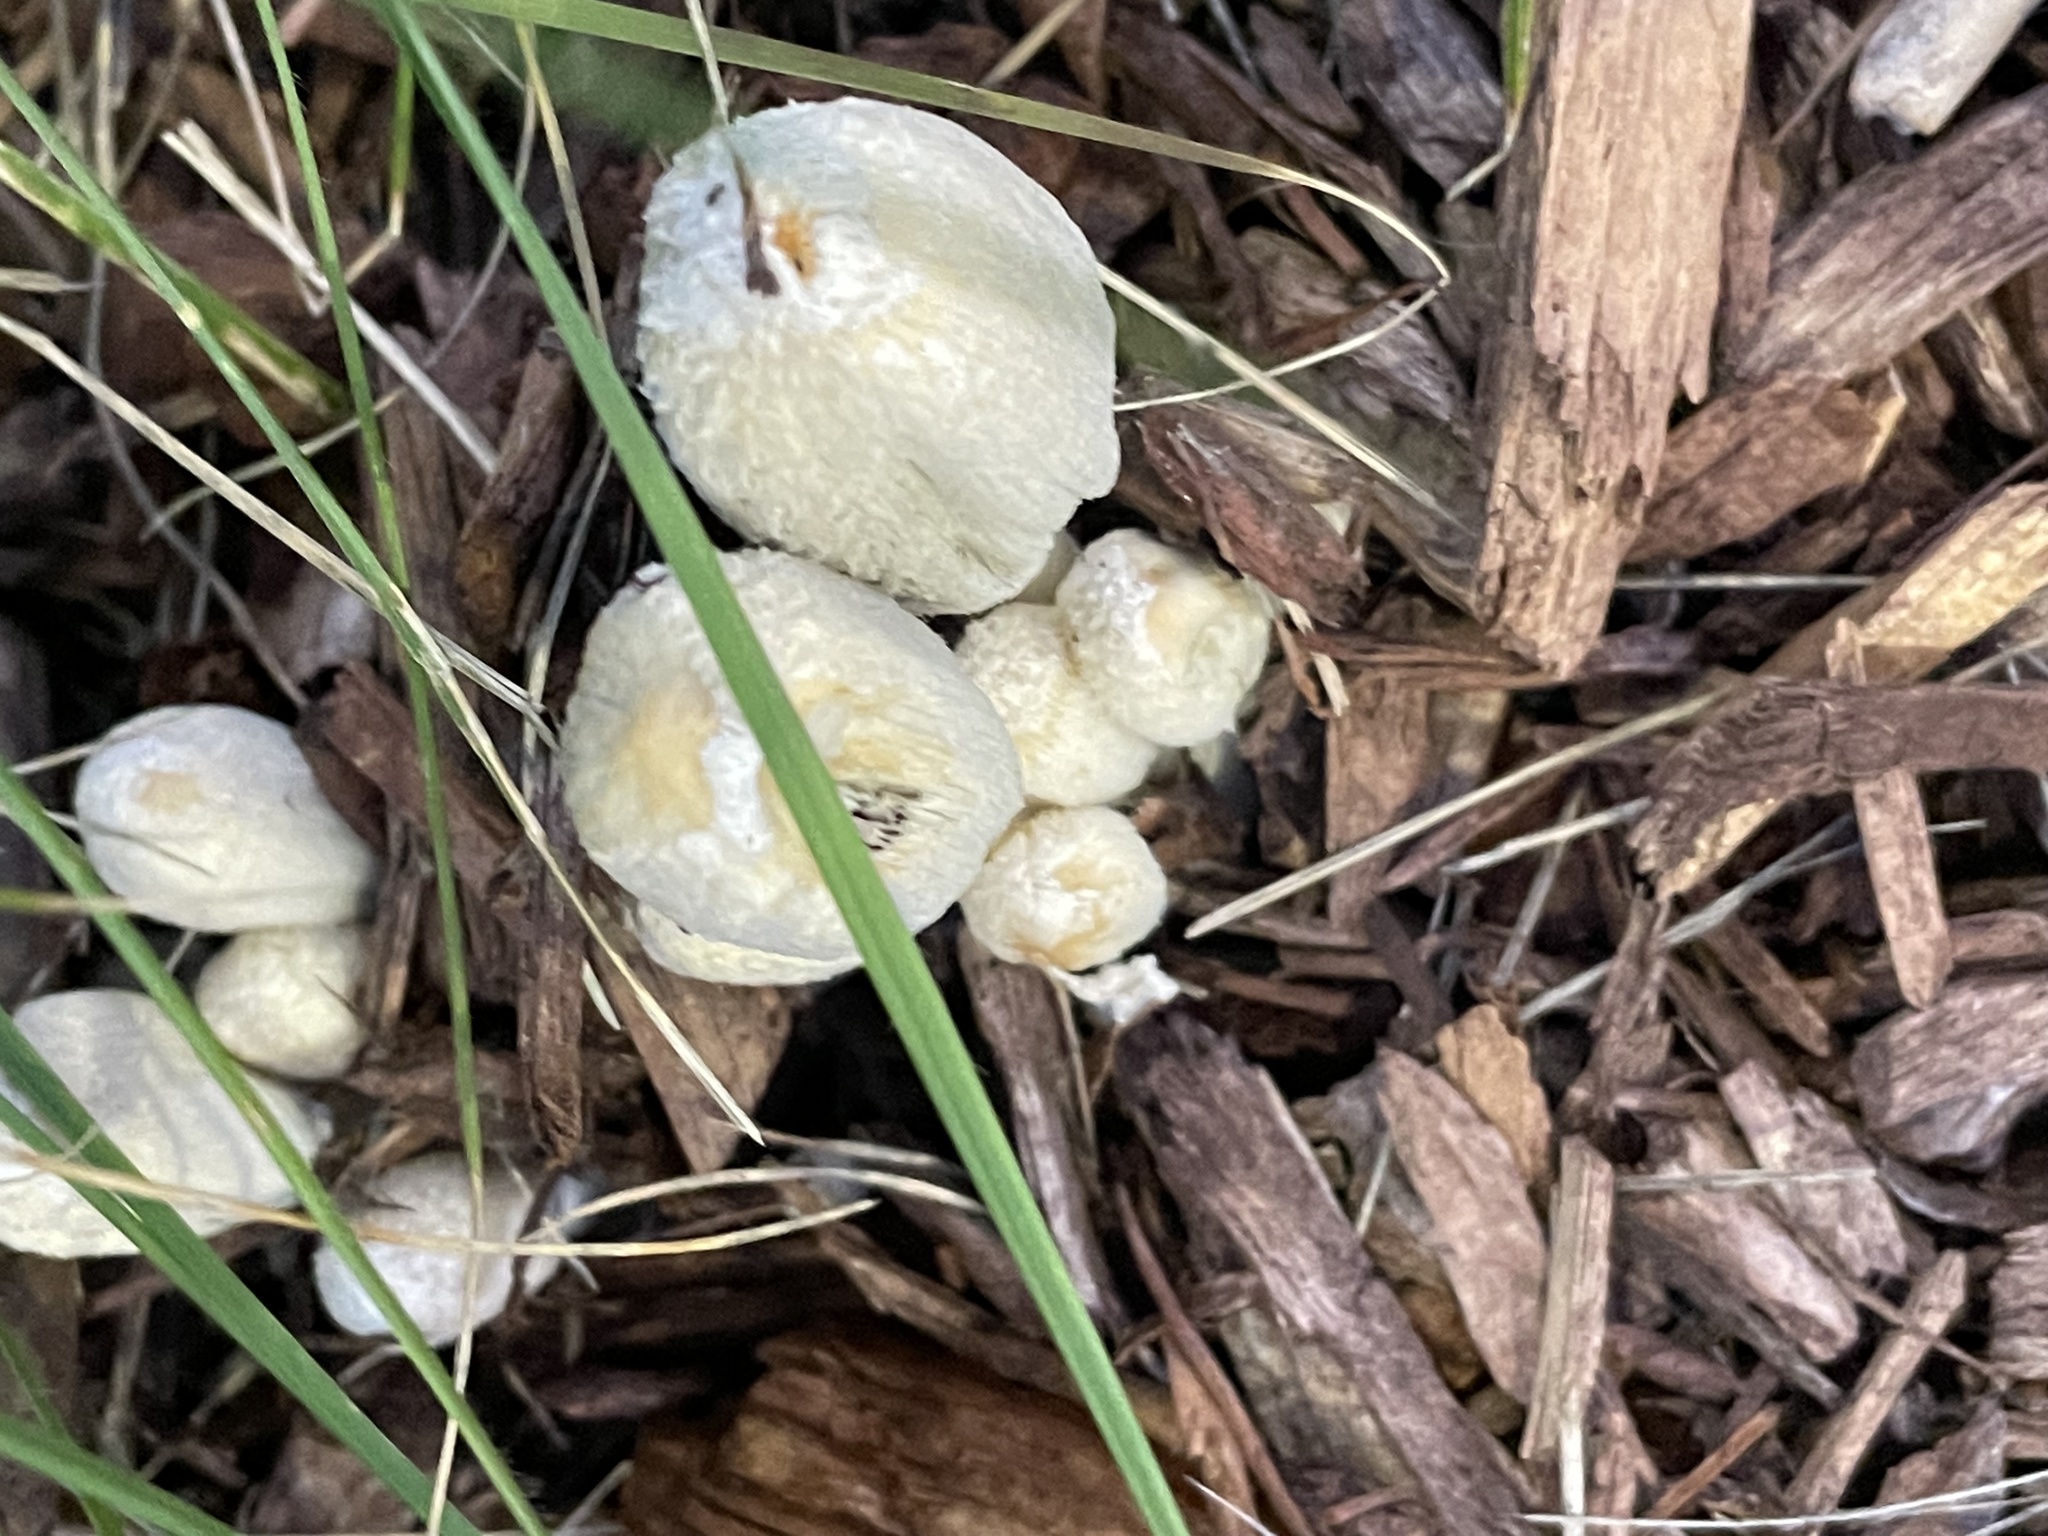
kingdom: Fungi
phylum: Basidiomycota
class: Agaricomycetes
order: Agaricales
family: Psathyrellaceae
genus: Coprinellus
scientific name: Coprinellus flocculosus
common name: Flocculose inkcap
